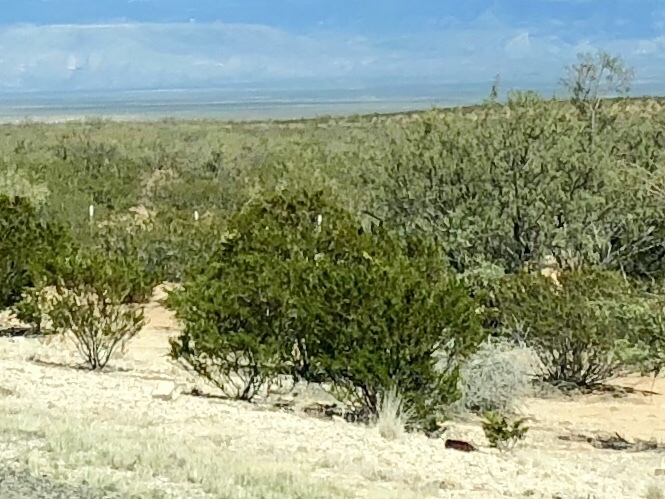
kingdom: Plantae
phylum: Tracheophyta
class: Magnoliopsida
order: Zygophyllales
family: Zygophyllaceae
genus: Larrea
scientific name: Larrea tridentata
